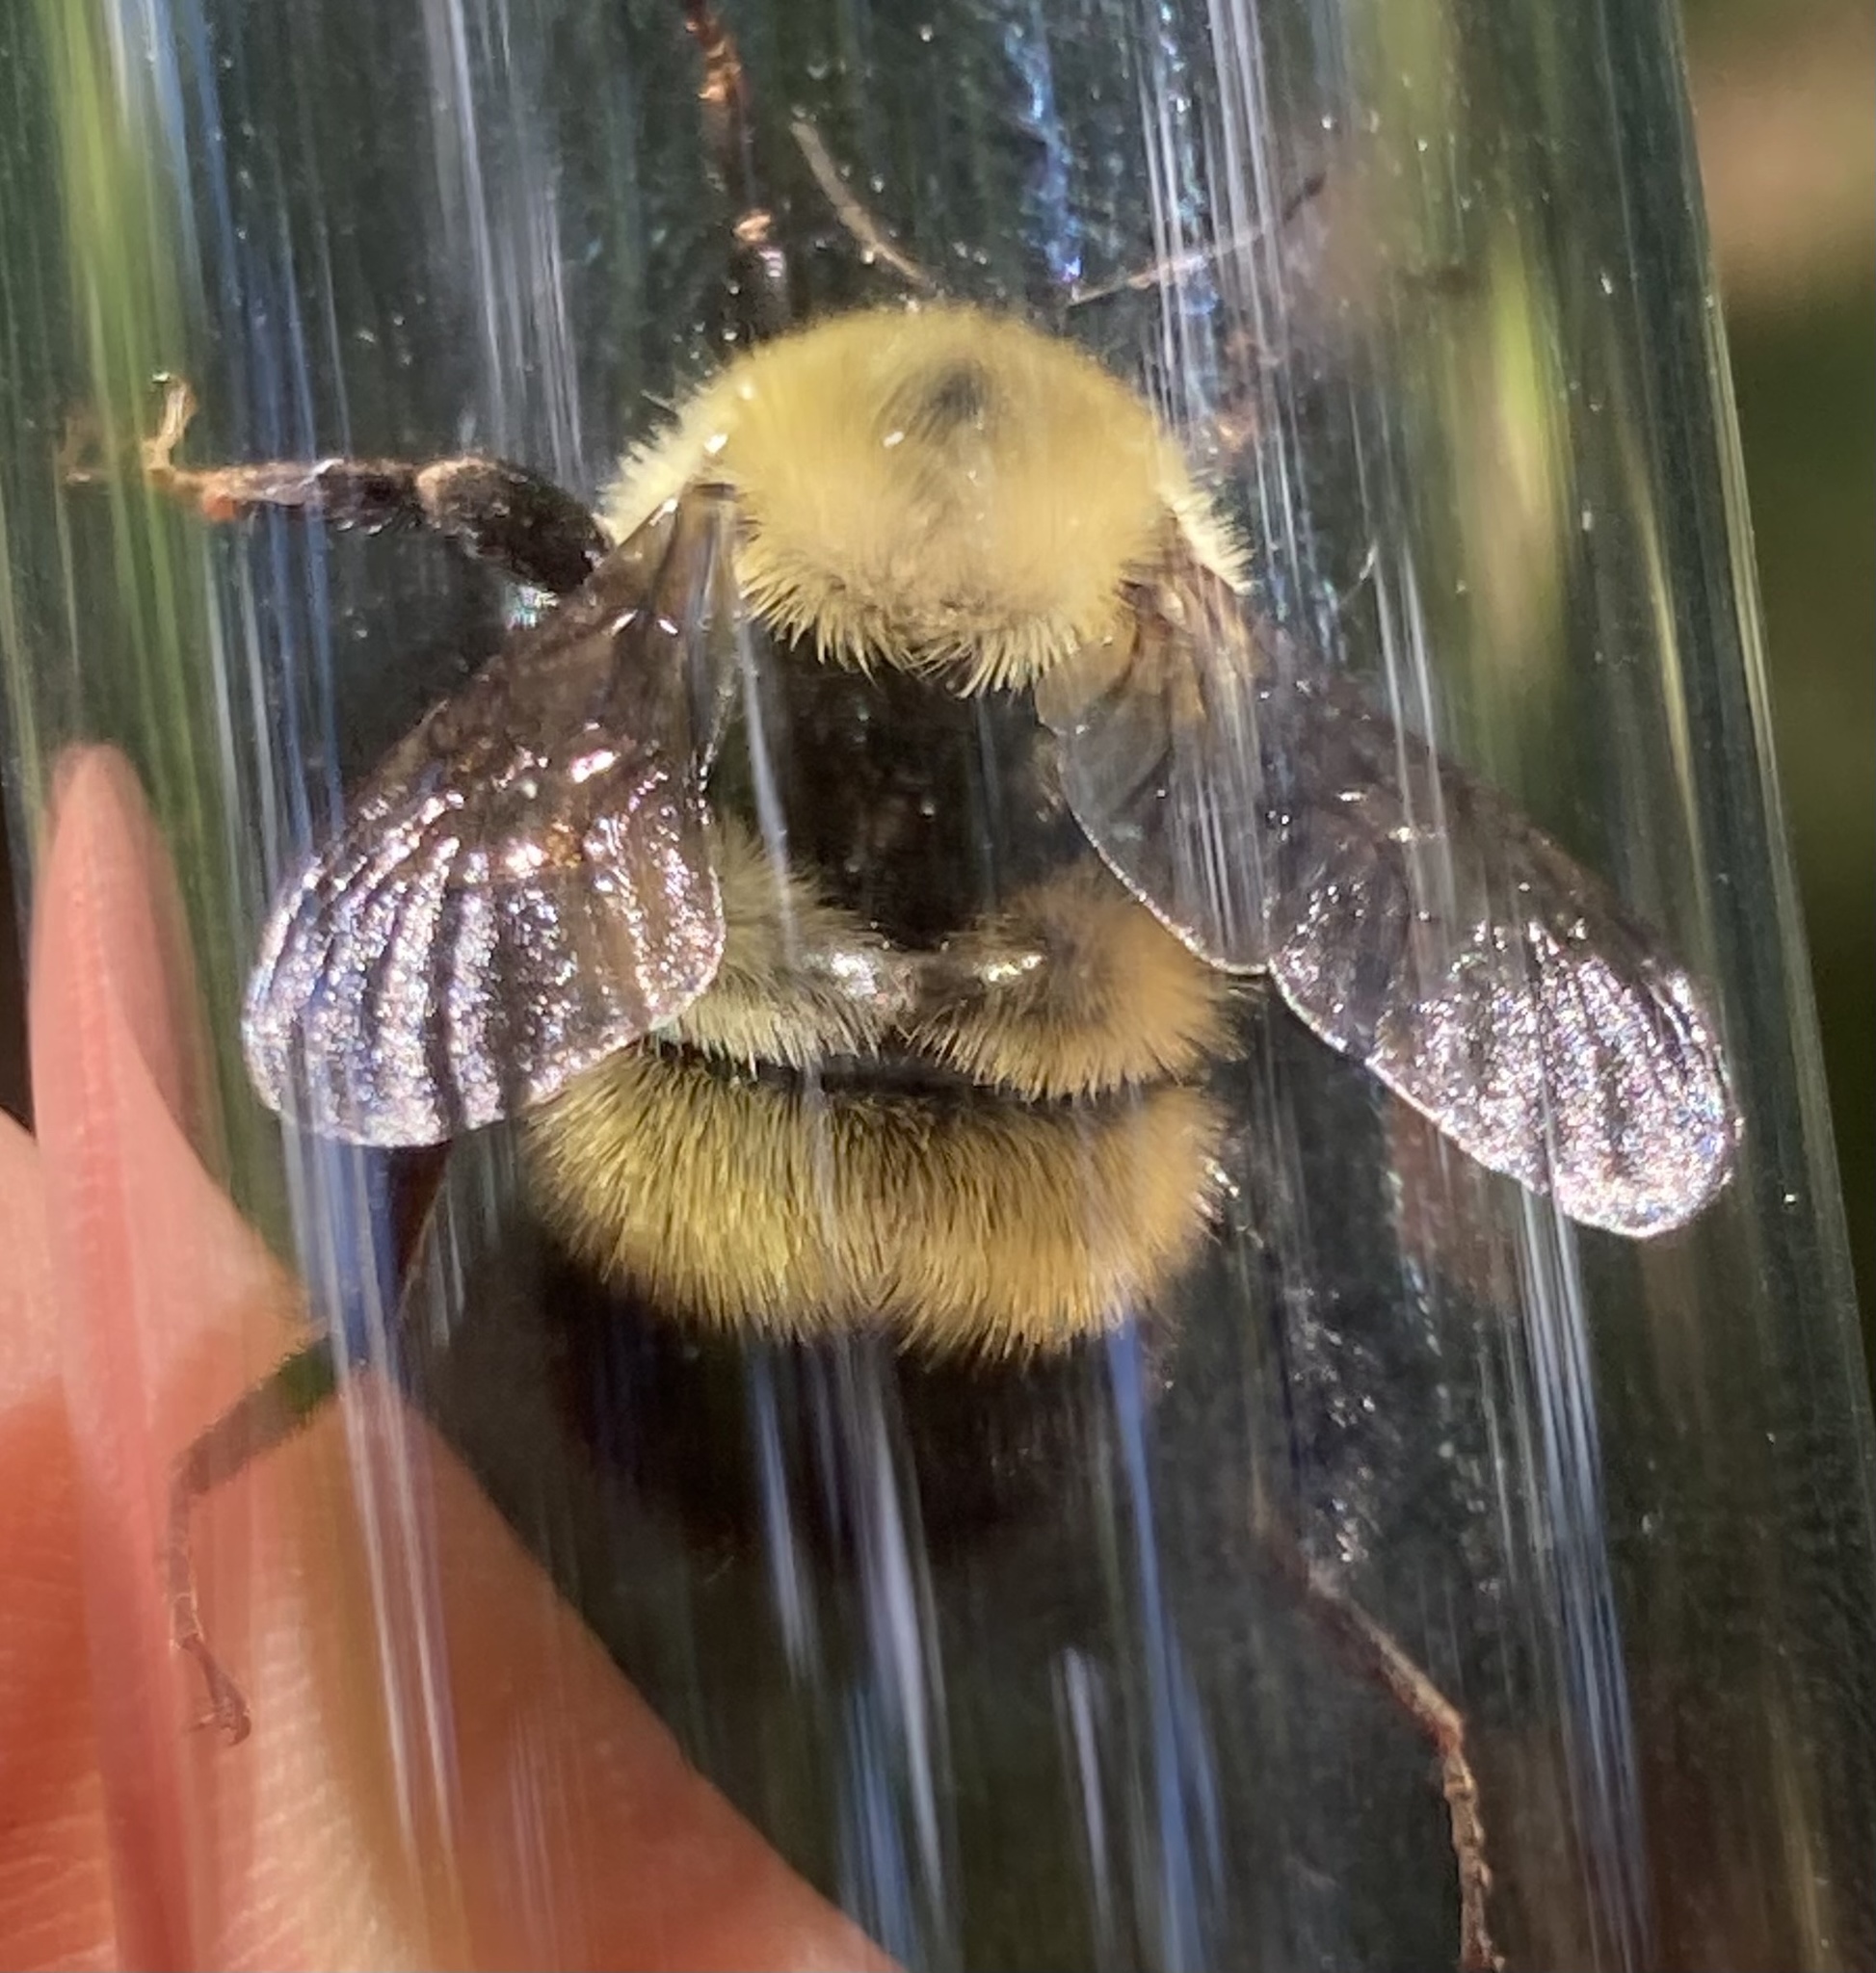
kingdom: Animalia
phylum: Arthropoda
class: Insecta
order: Hymenoptera
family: Apidae
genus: Bombus
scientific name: Bombus sandersoni
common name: Sanderson bumble bee
